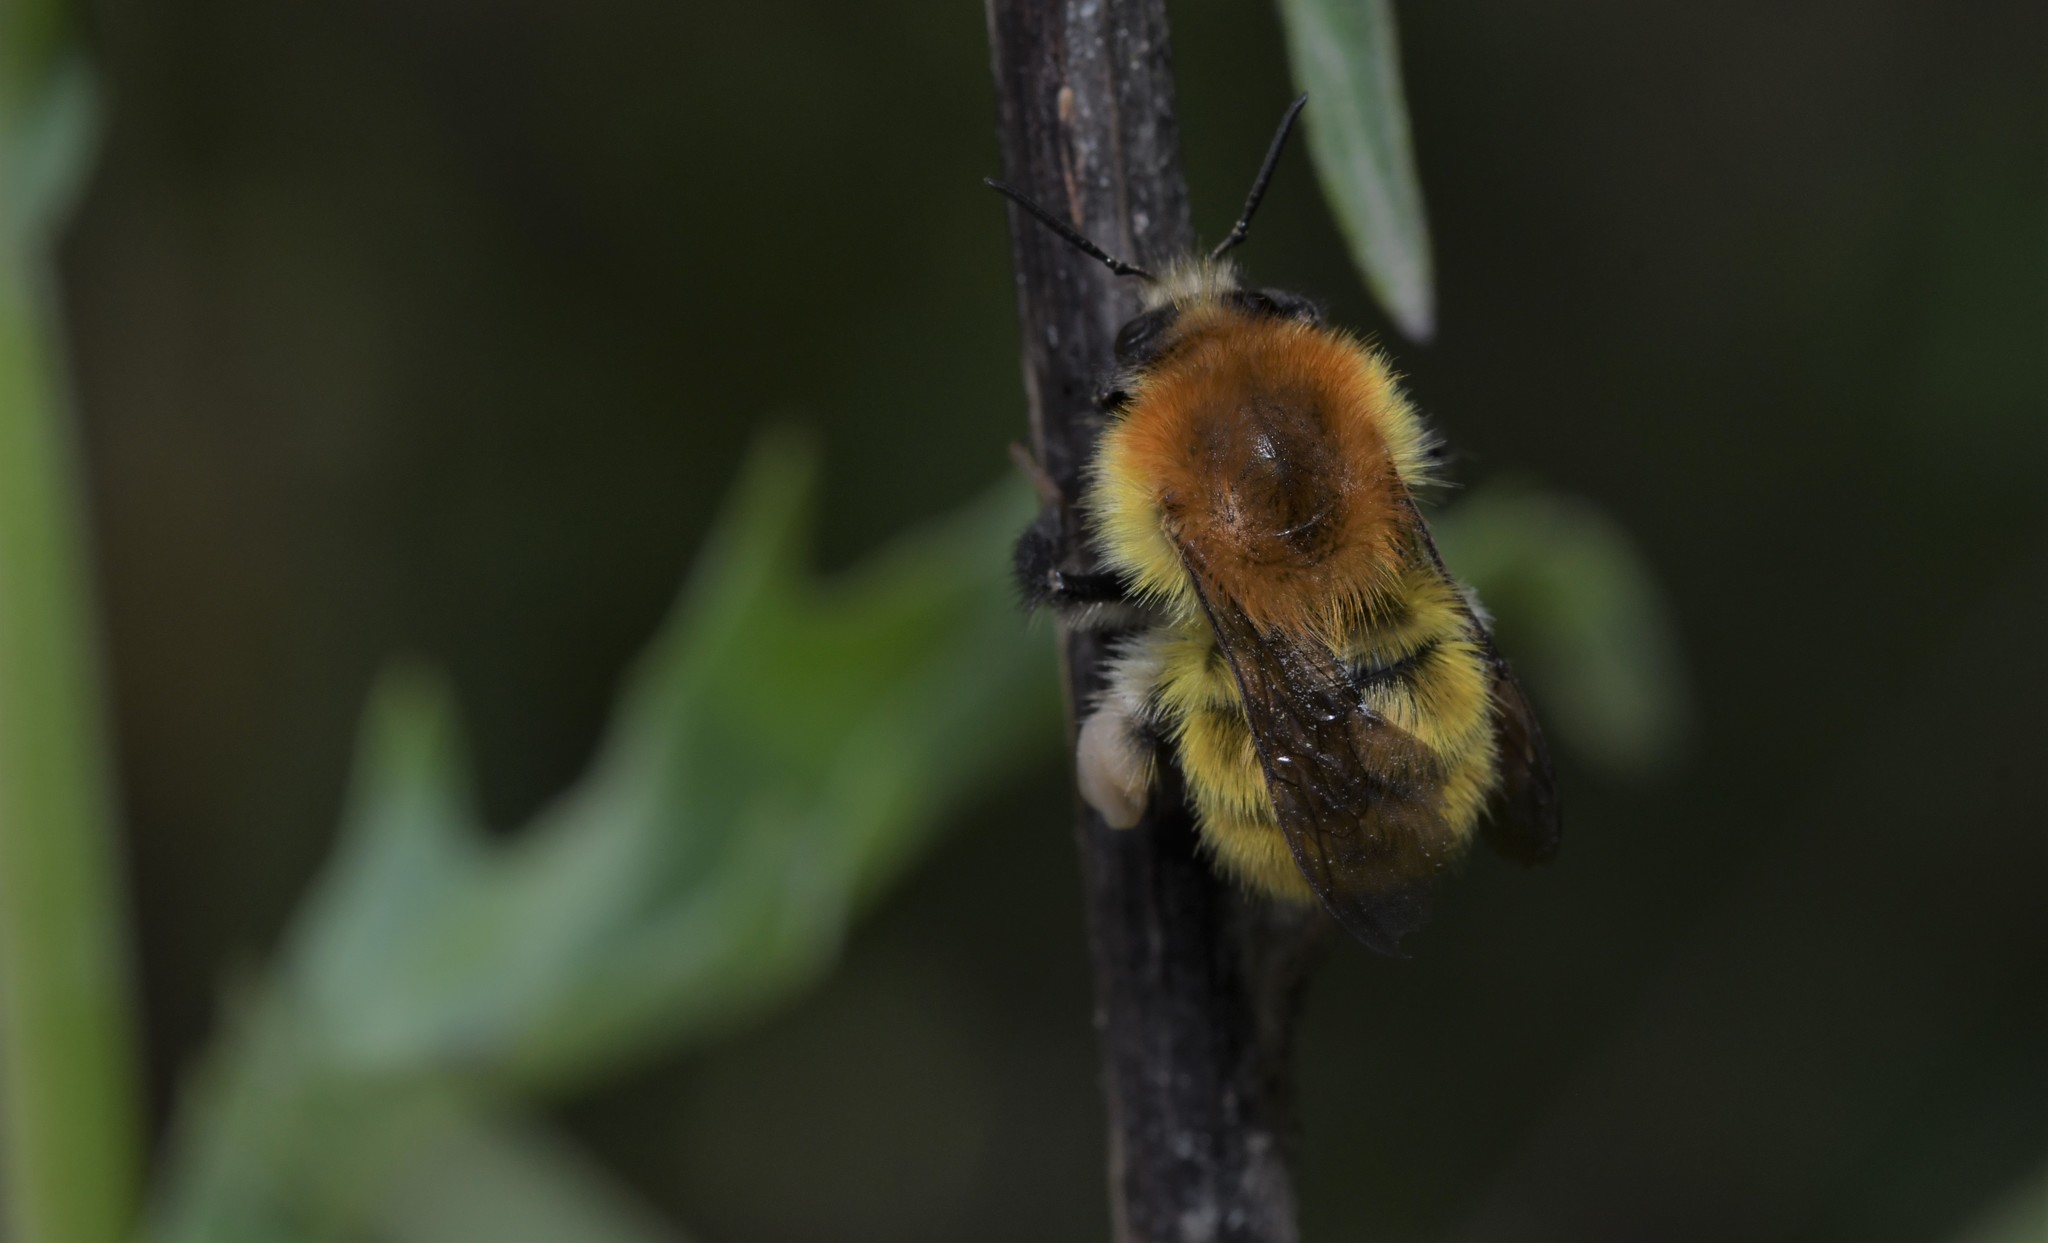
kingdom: Animalia
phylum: Arthropoda
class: Insecta
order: Hymenoptera
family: Apidae
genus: Bombus
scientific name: Bombus pascuorum
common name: Common carder bee
